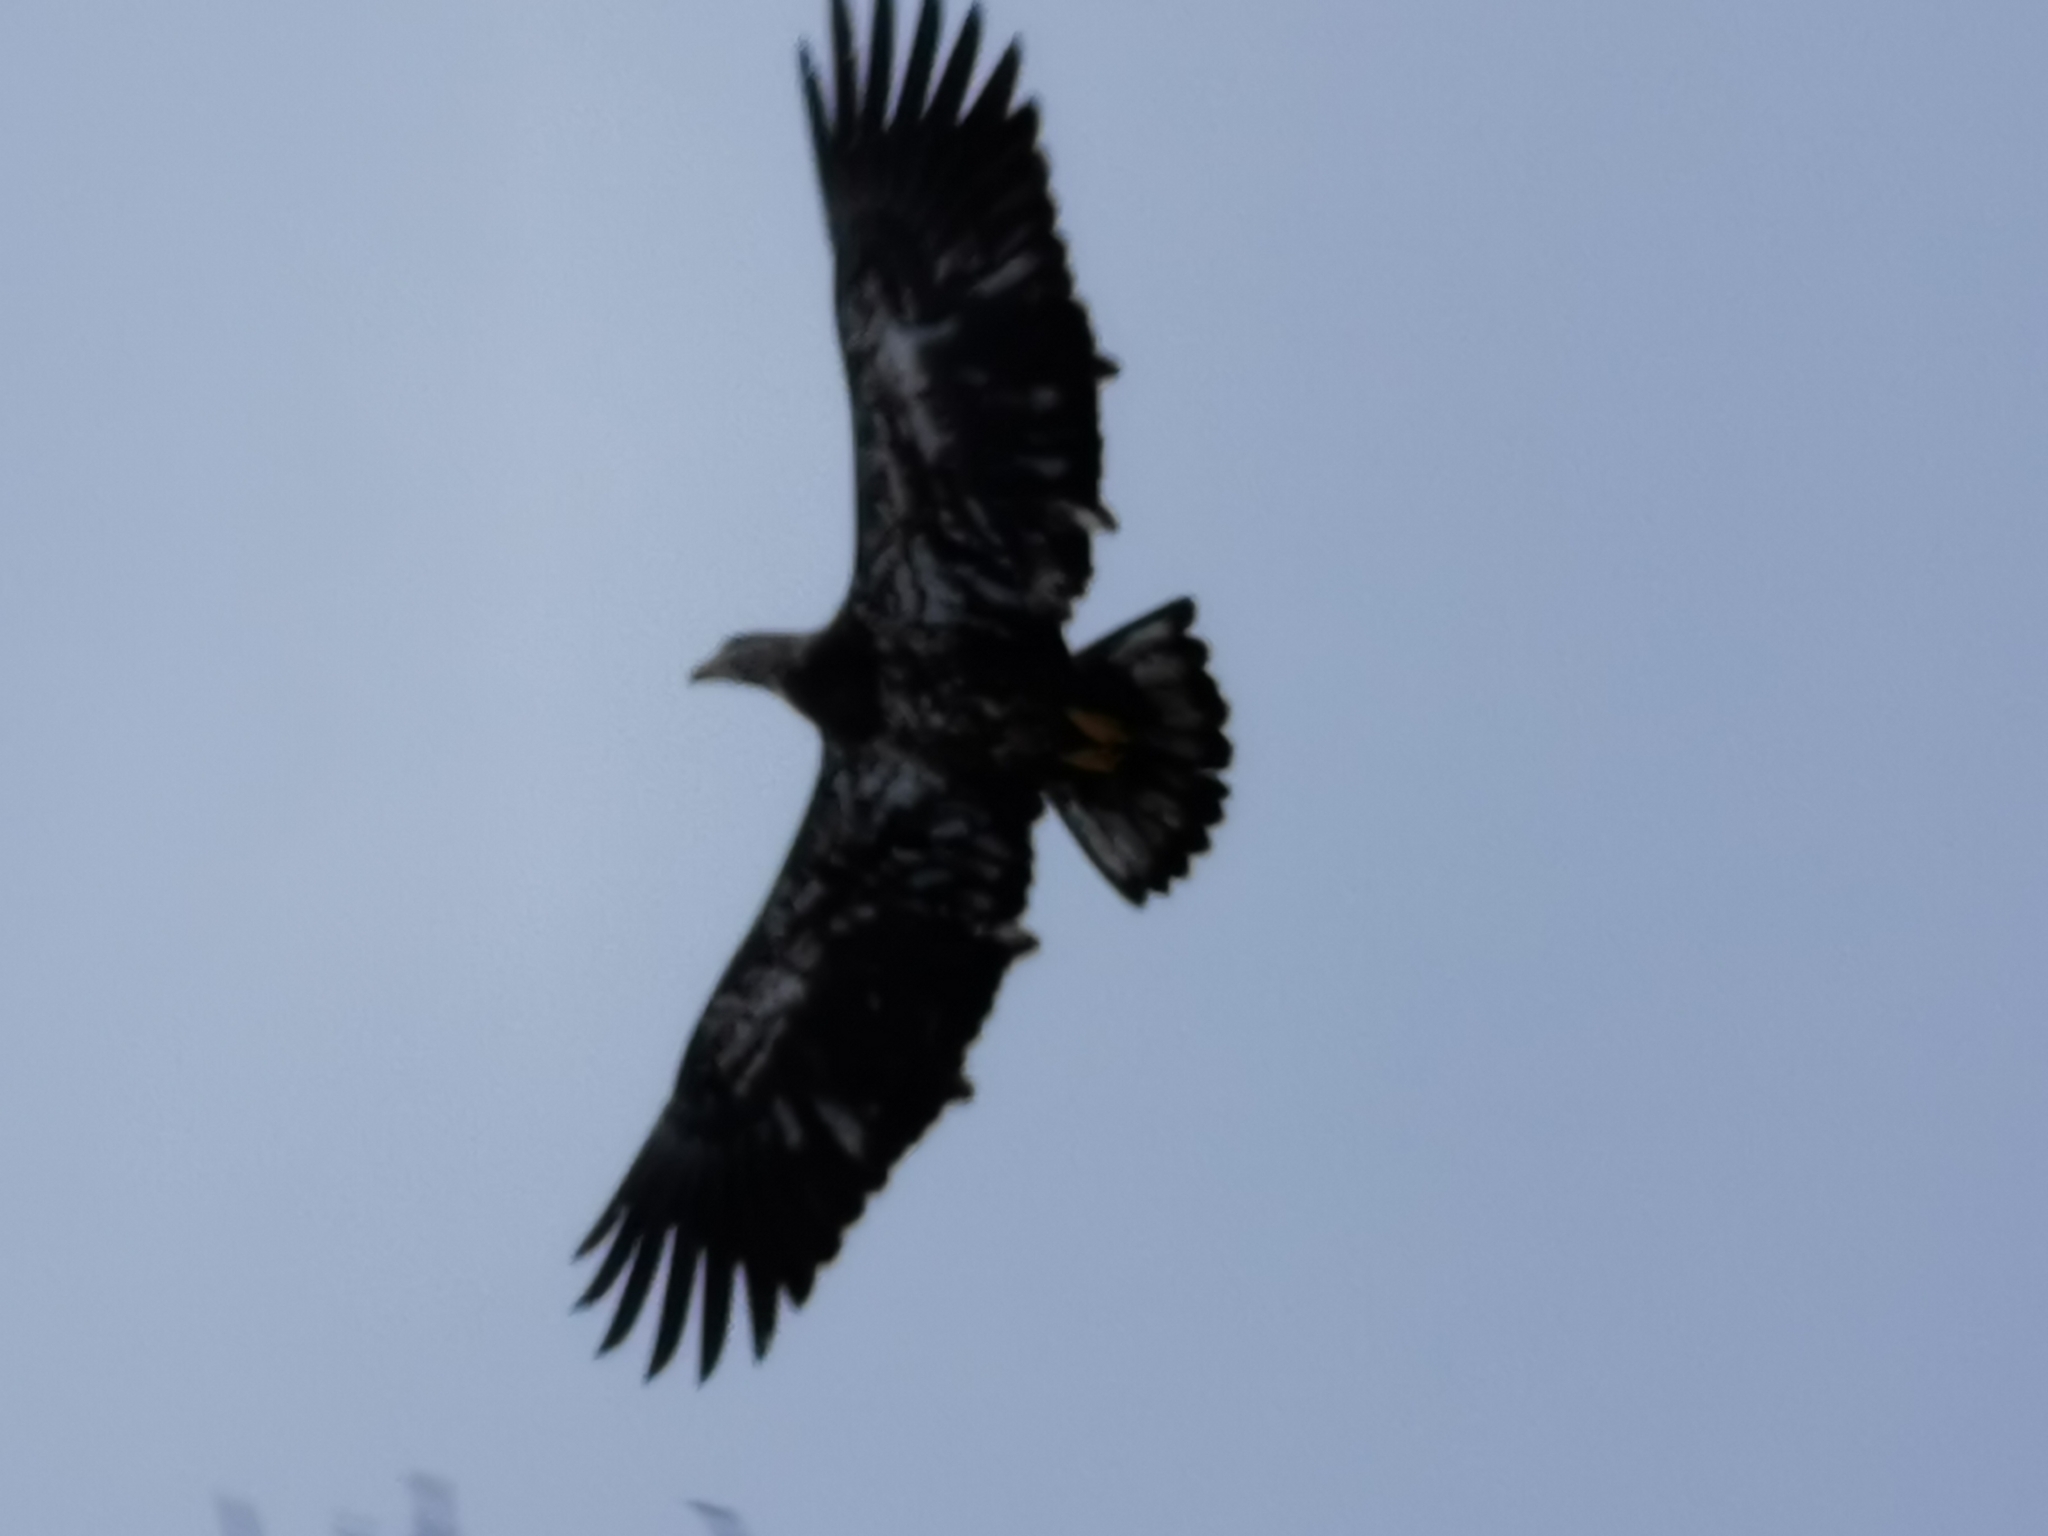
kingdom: Animalia
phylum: Chordata
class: Aves
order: Accipitriformes
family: Accipitridae
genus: Haliaeetus
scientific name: Haliaeetus leucocephalus
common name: Bald eagle
